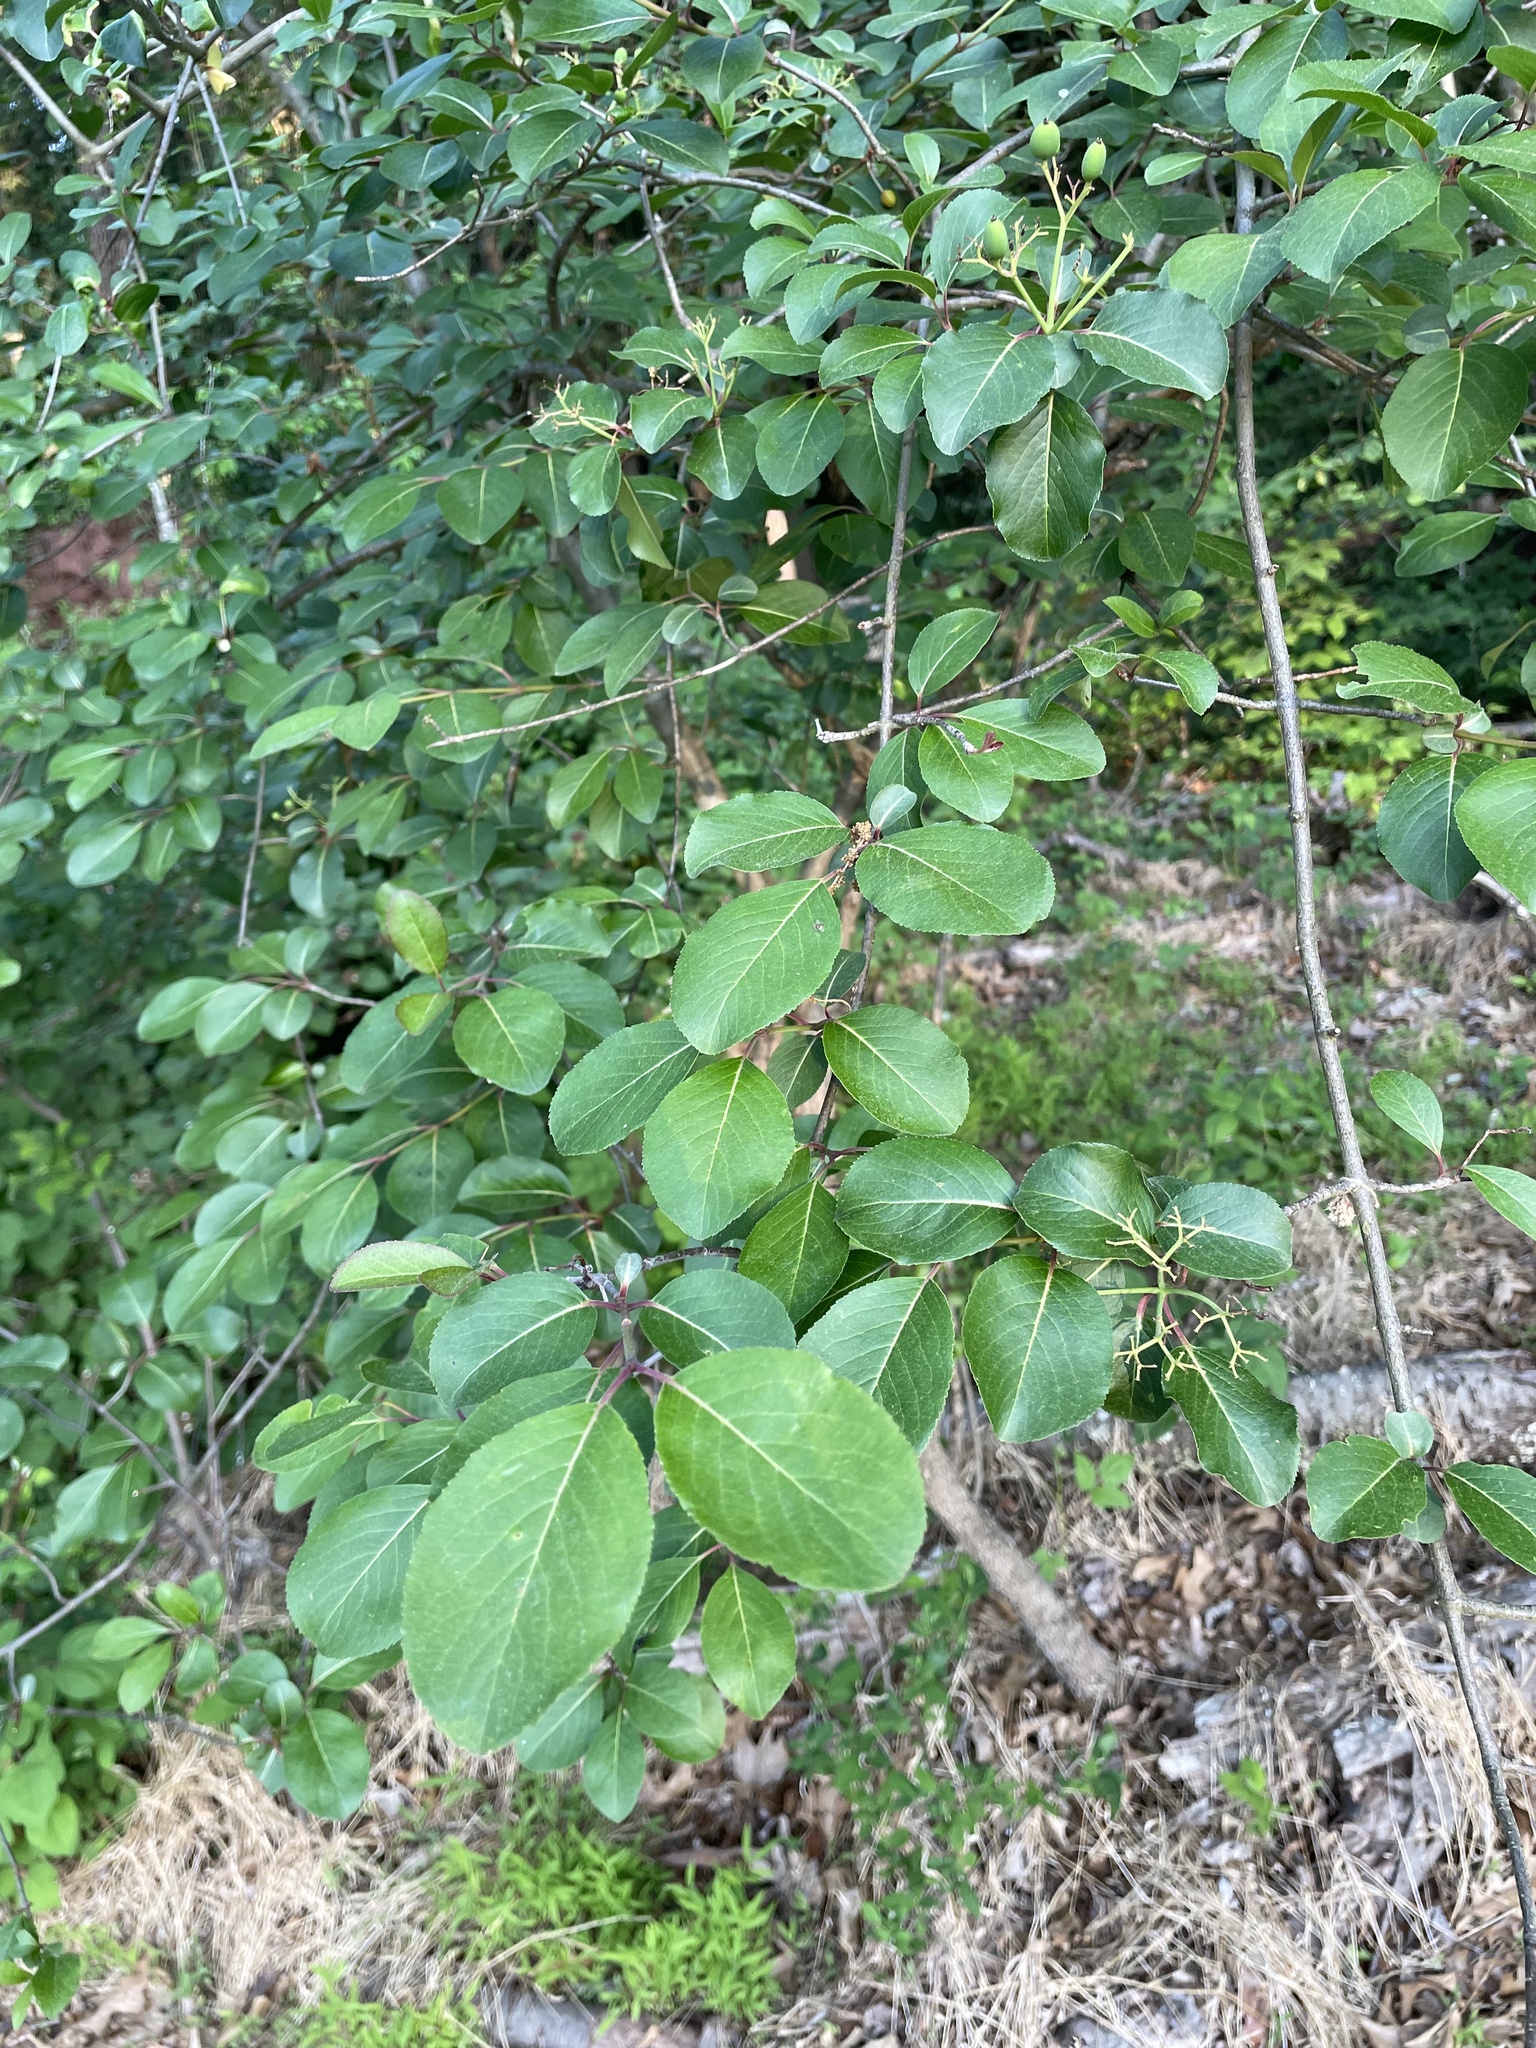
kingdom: Plantae
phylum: Tracheophyta
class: Magnoliopsida
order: Dipsacales
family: Viburnaceae
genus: Viburnum
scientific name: Viburnum prunifolium
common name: Black haw
